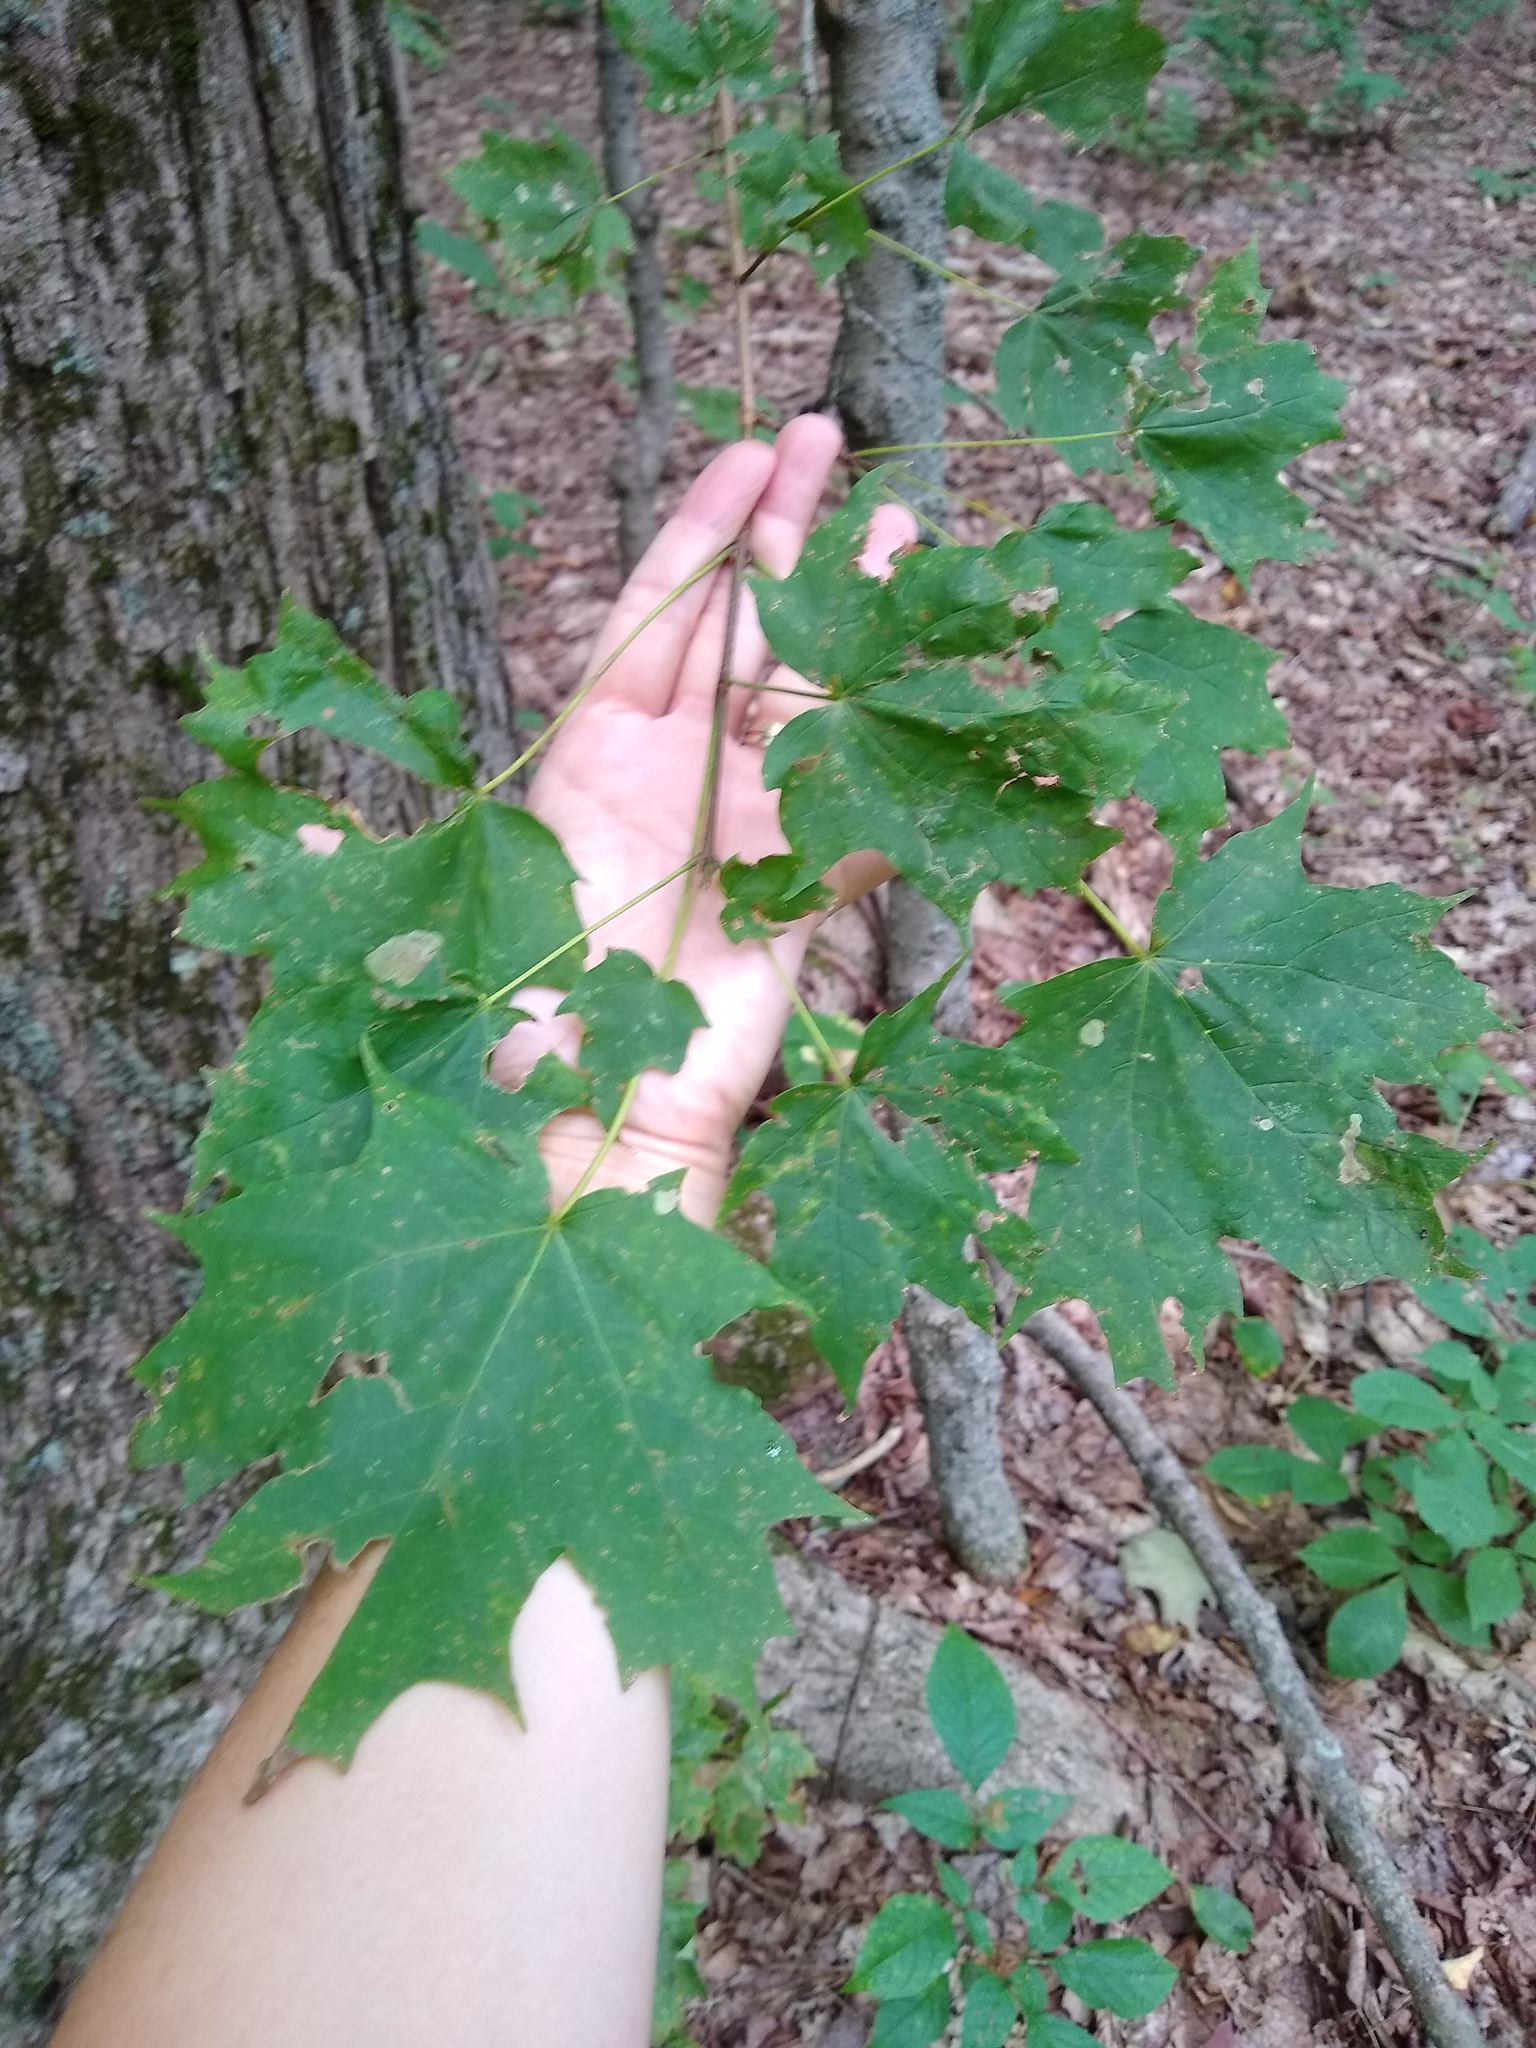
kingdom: Plantae
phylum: Tracheophyta
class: Magnoliopsida
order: Sapindales
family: Sapindaceae
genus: Acer
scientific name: Acer saccharum
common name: Sugar maple
